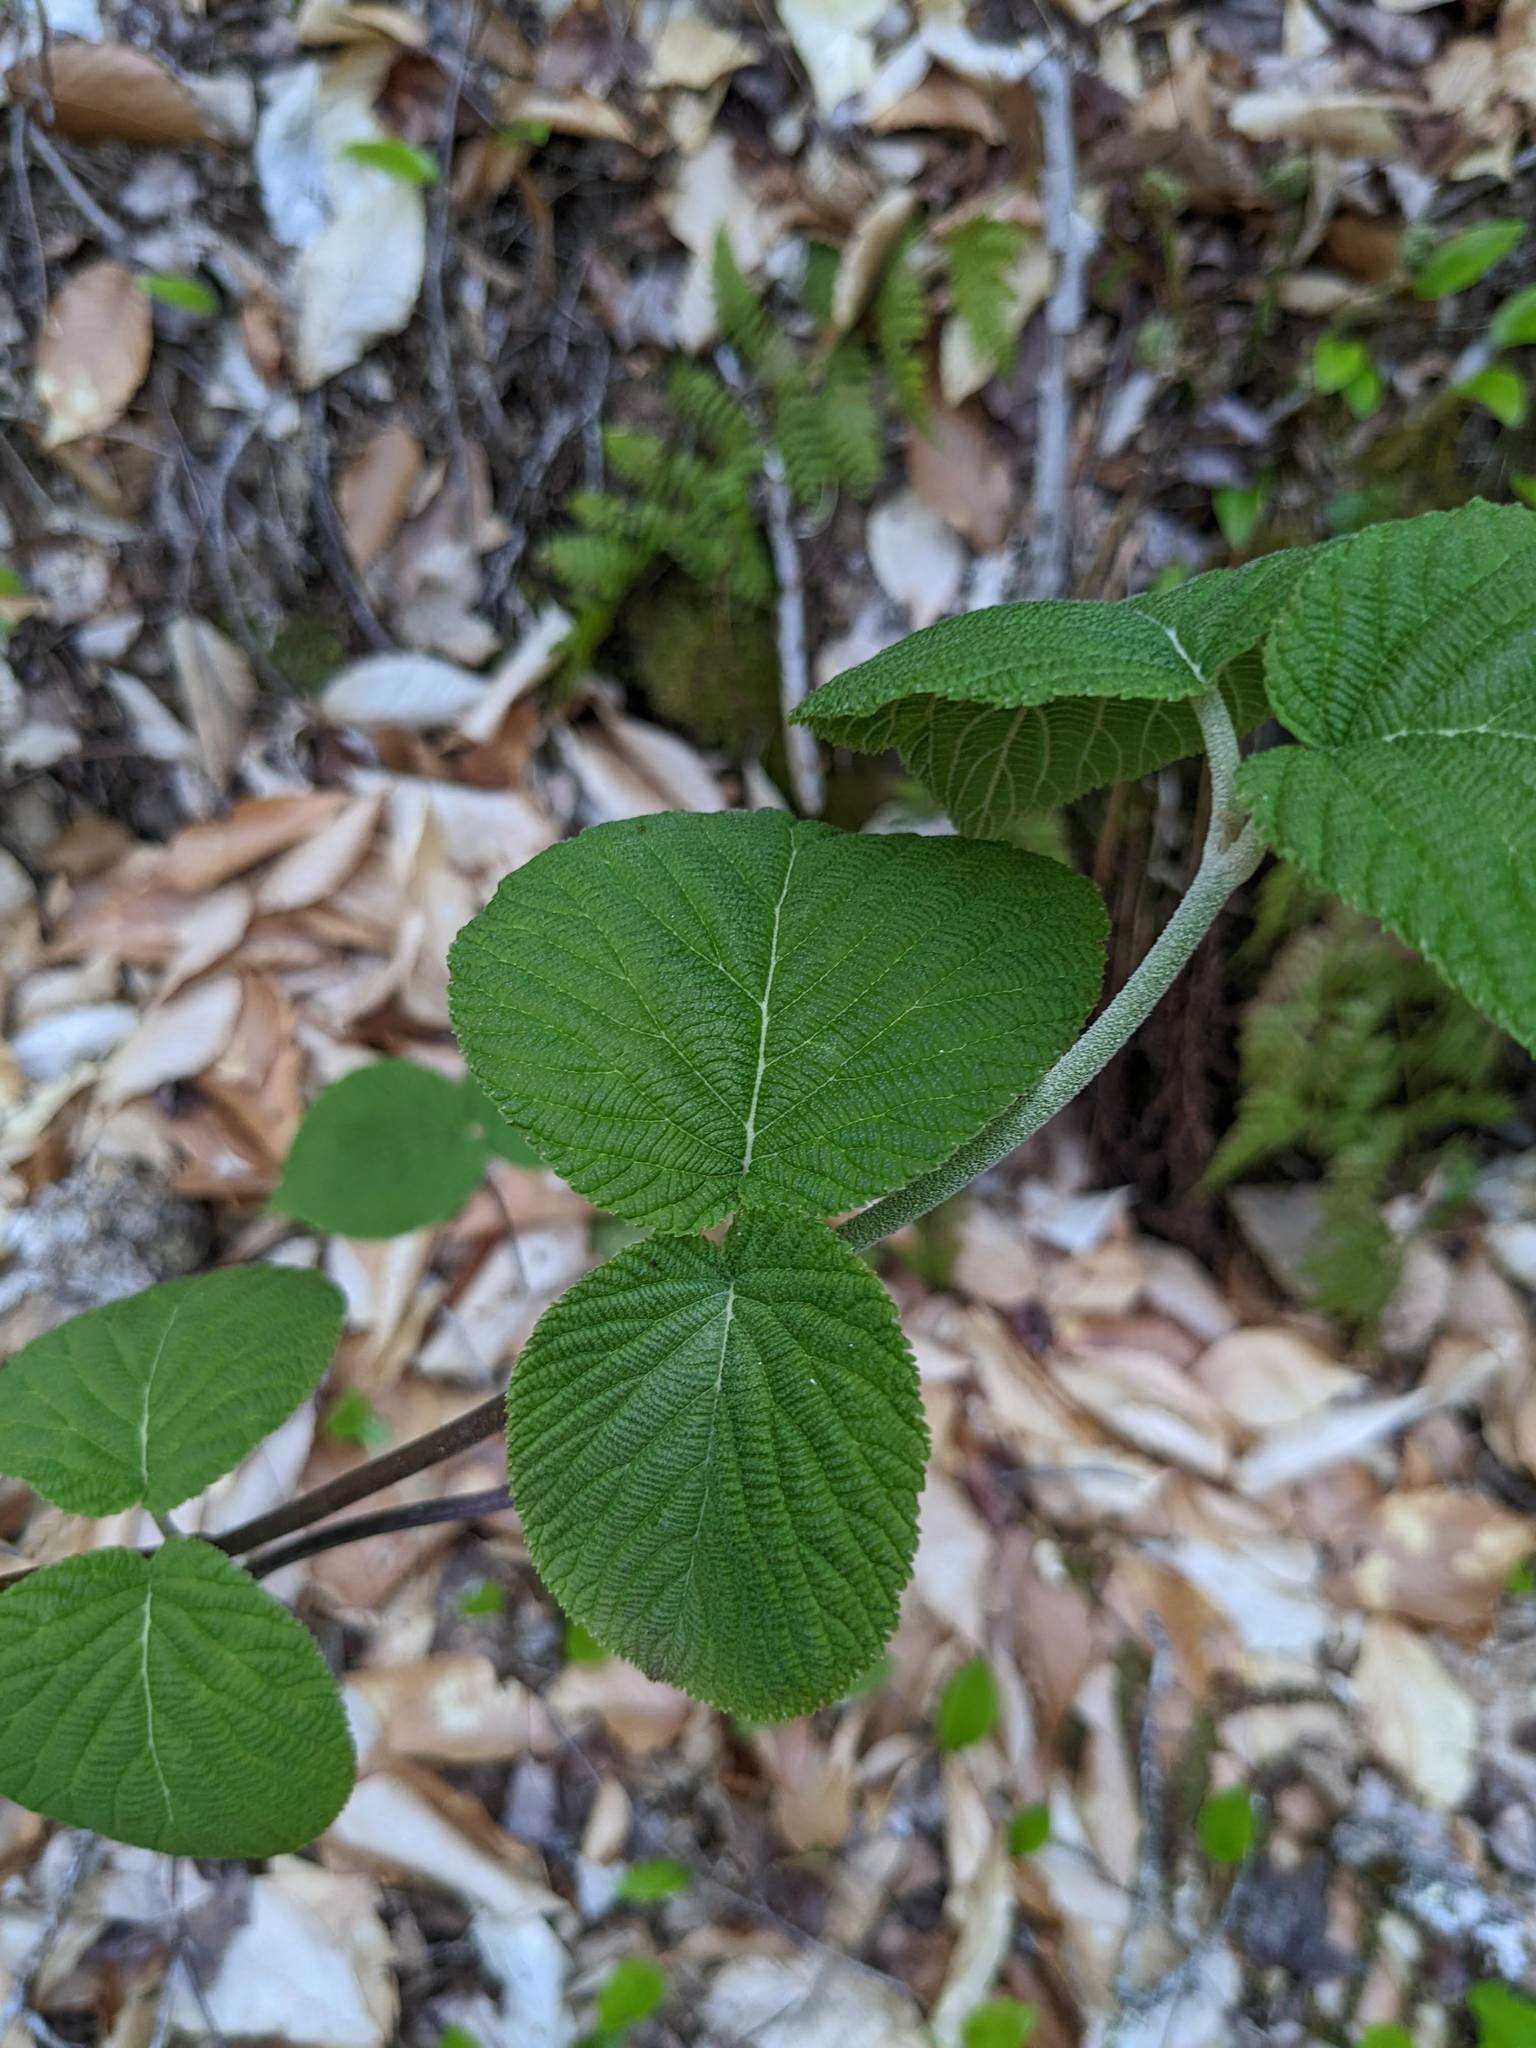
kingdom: Plantae
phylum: Tracheophyta
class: Magnoliopsida
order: Dipsacales
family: Viburnaceae
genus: Viburnum
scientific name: Viburnum lantanoides
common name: Hobblebush
